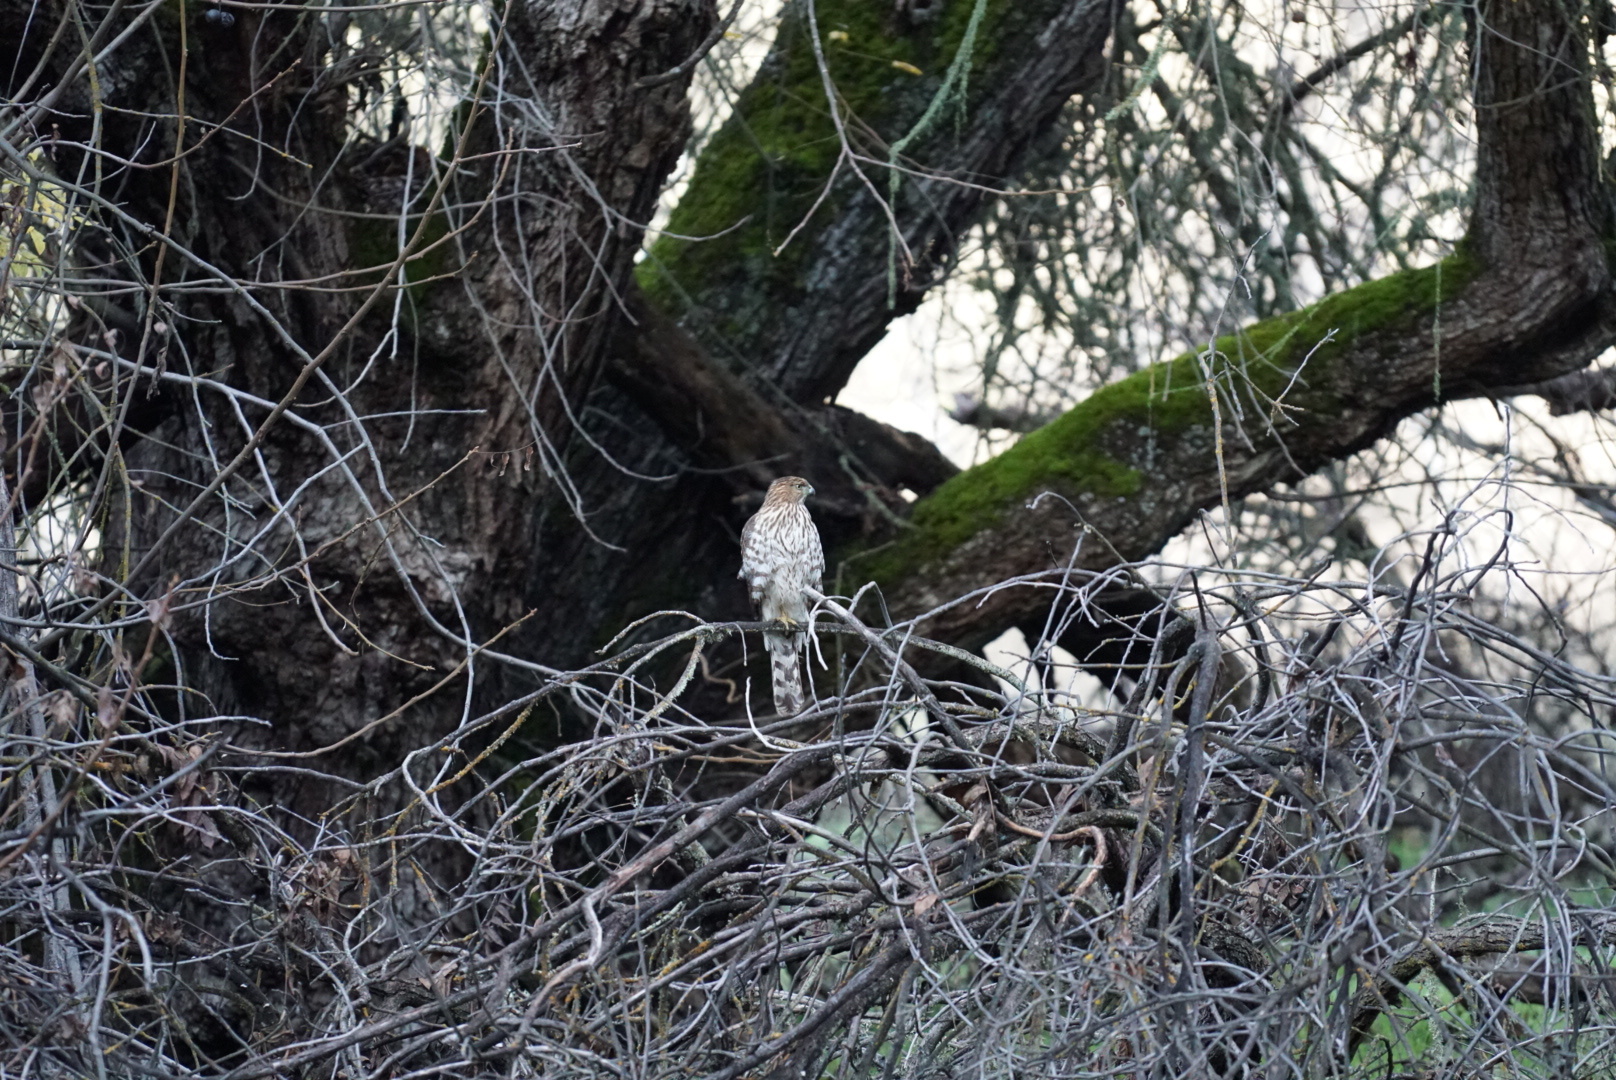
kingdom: Animalia
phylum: Chordata
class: Aves
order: Accipitriformes
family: Accipitridae
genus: Accipiter
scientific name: Accipiter cooperii
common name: Cooper's hawk
